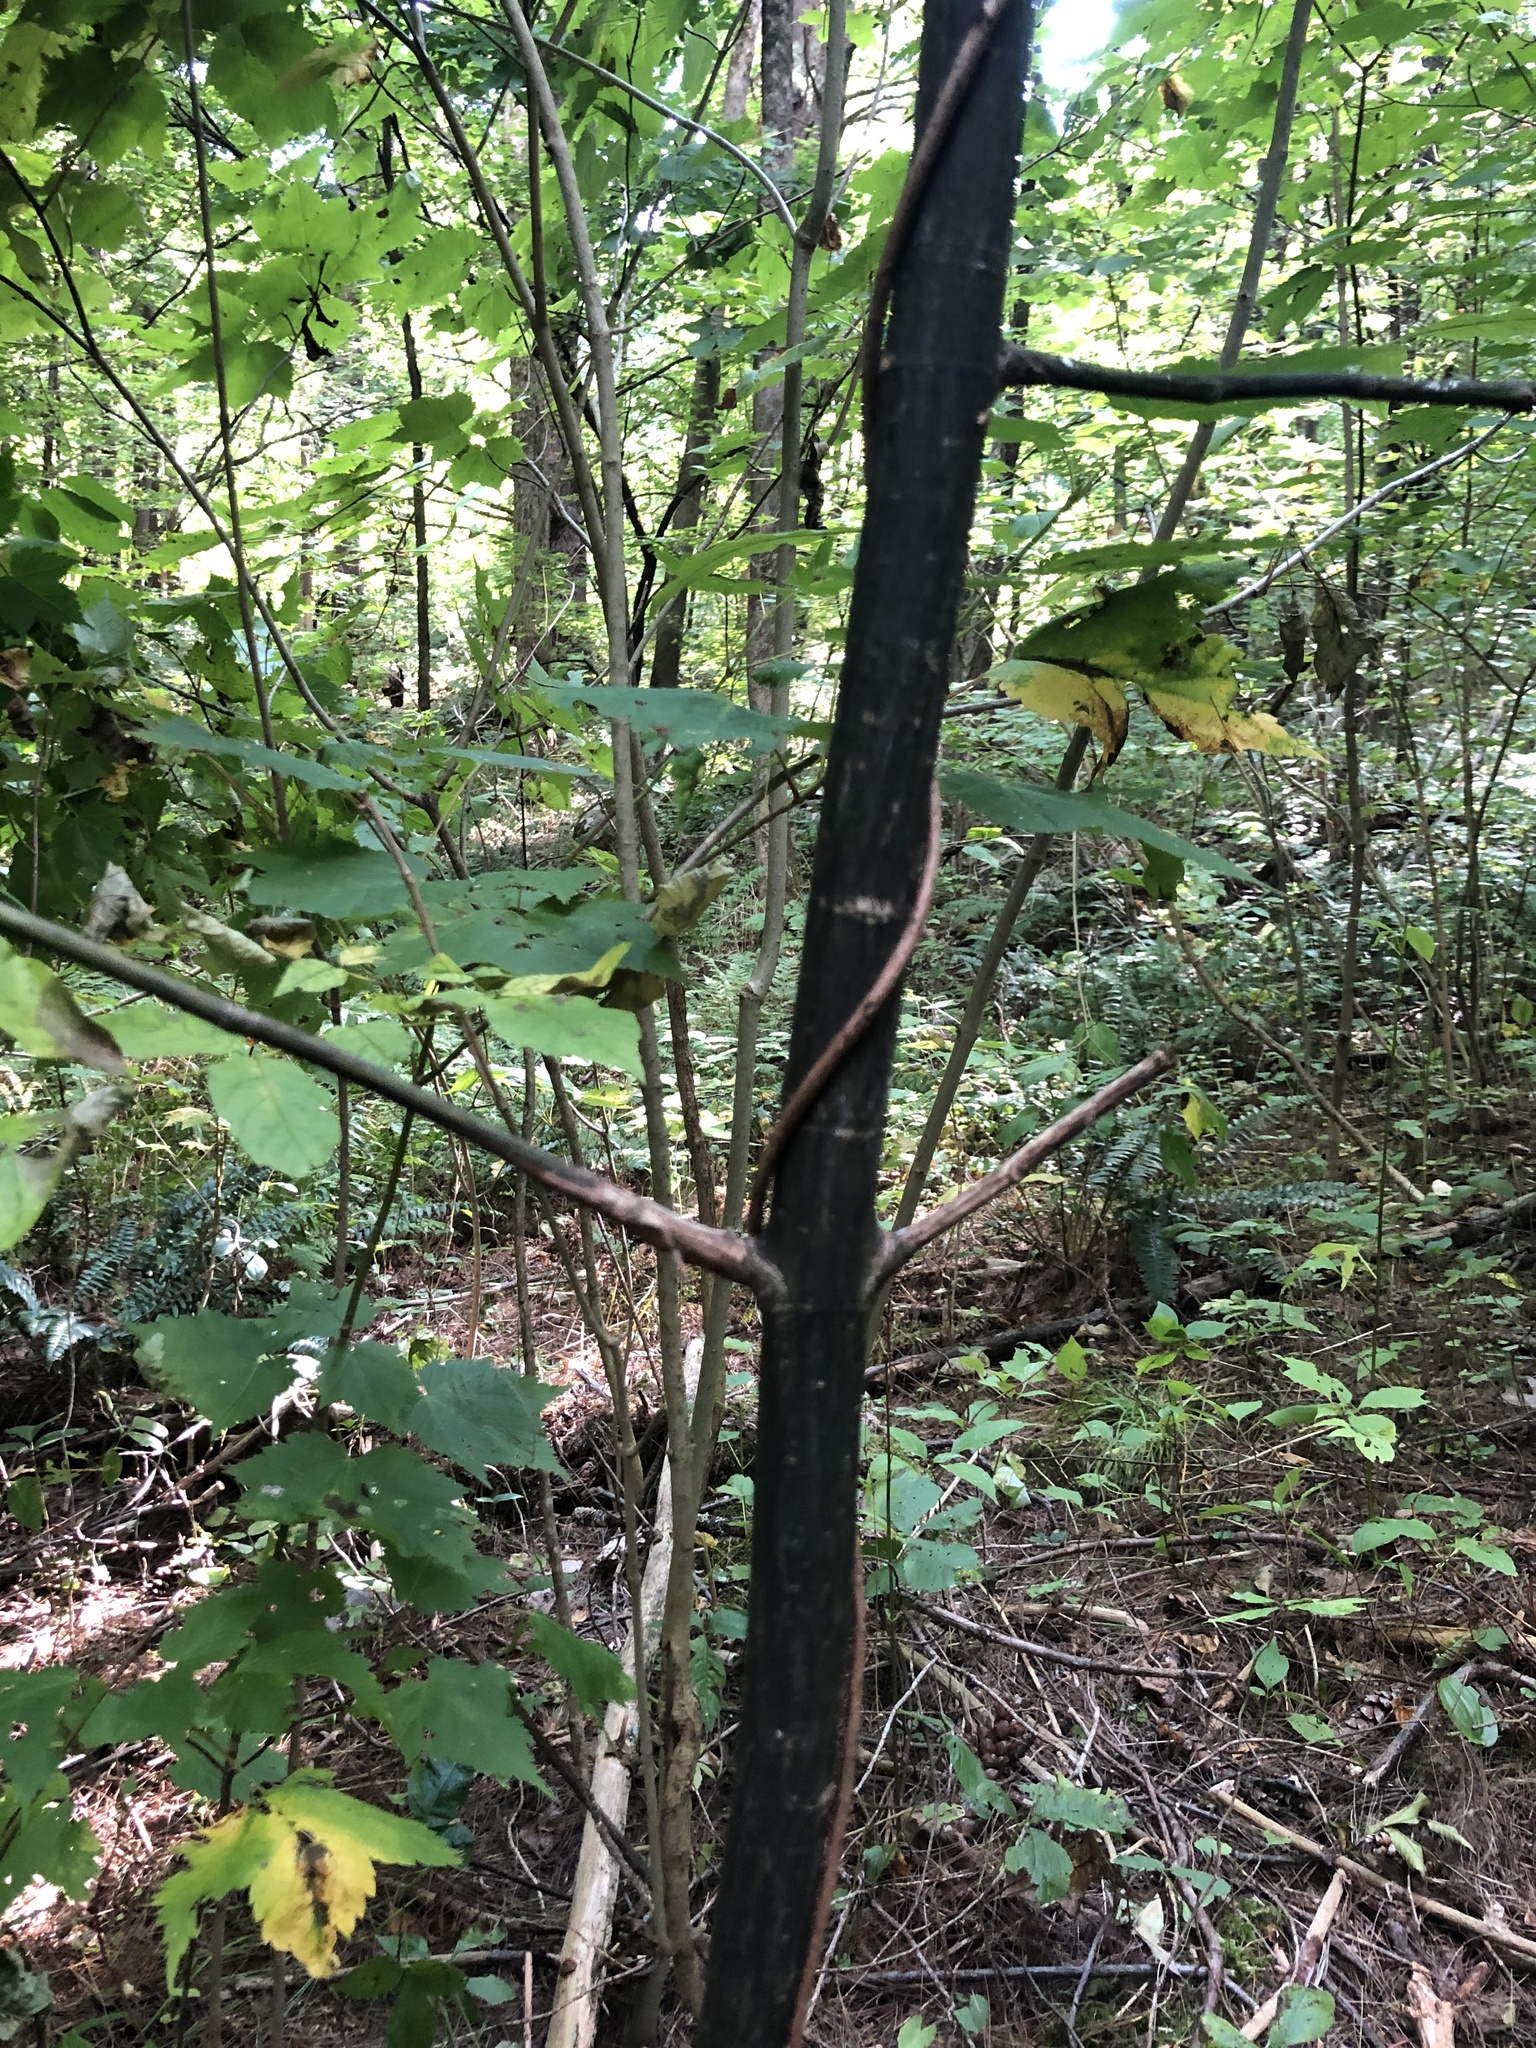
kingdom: Plantae
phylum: Tracheophyta
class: Magnoliopsida
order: Sapindales
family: Sapindaceae
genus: Acer
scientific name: Acer pensylvanicum
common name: Moosewood
